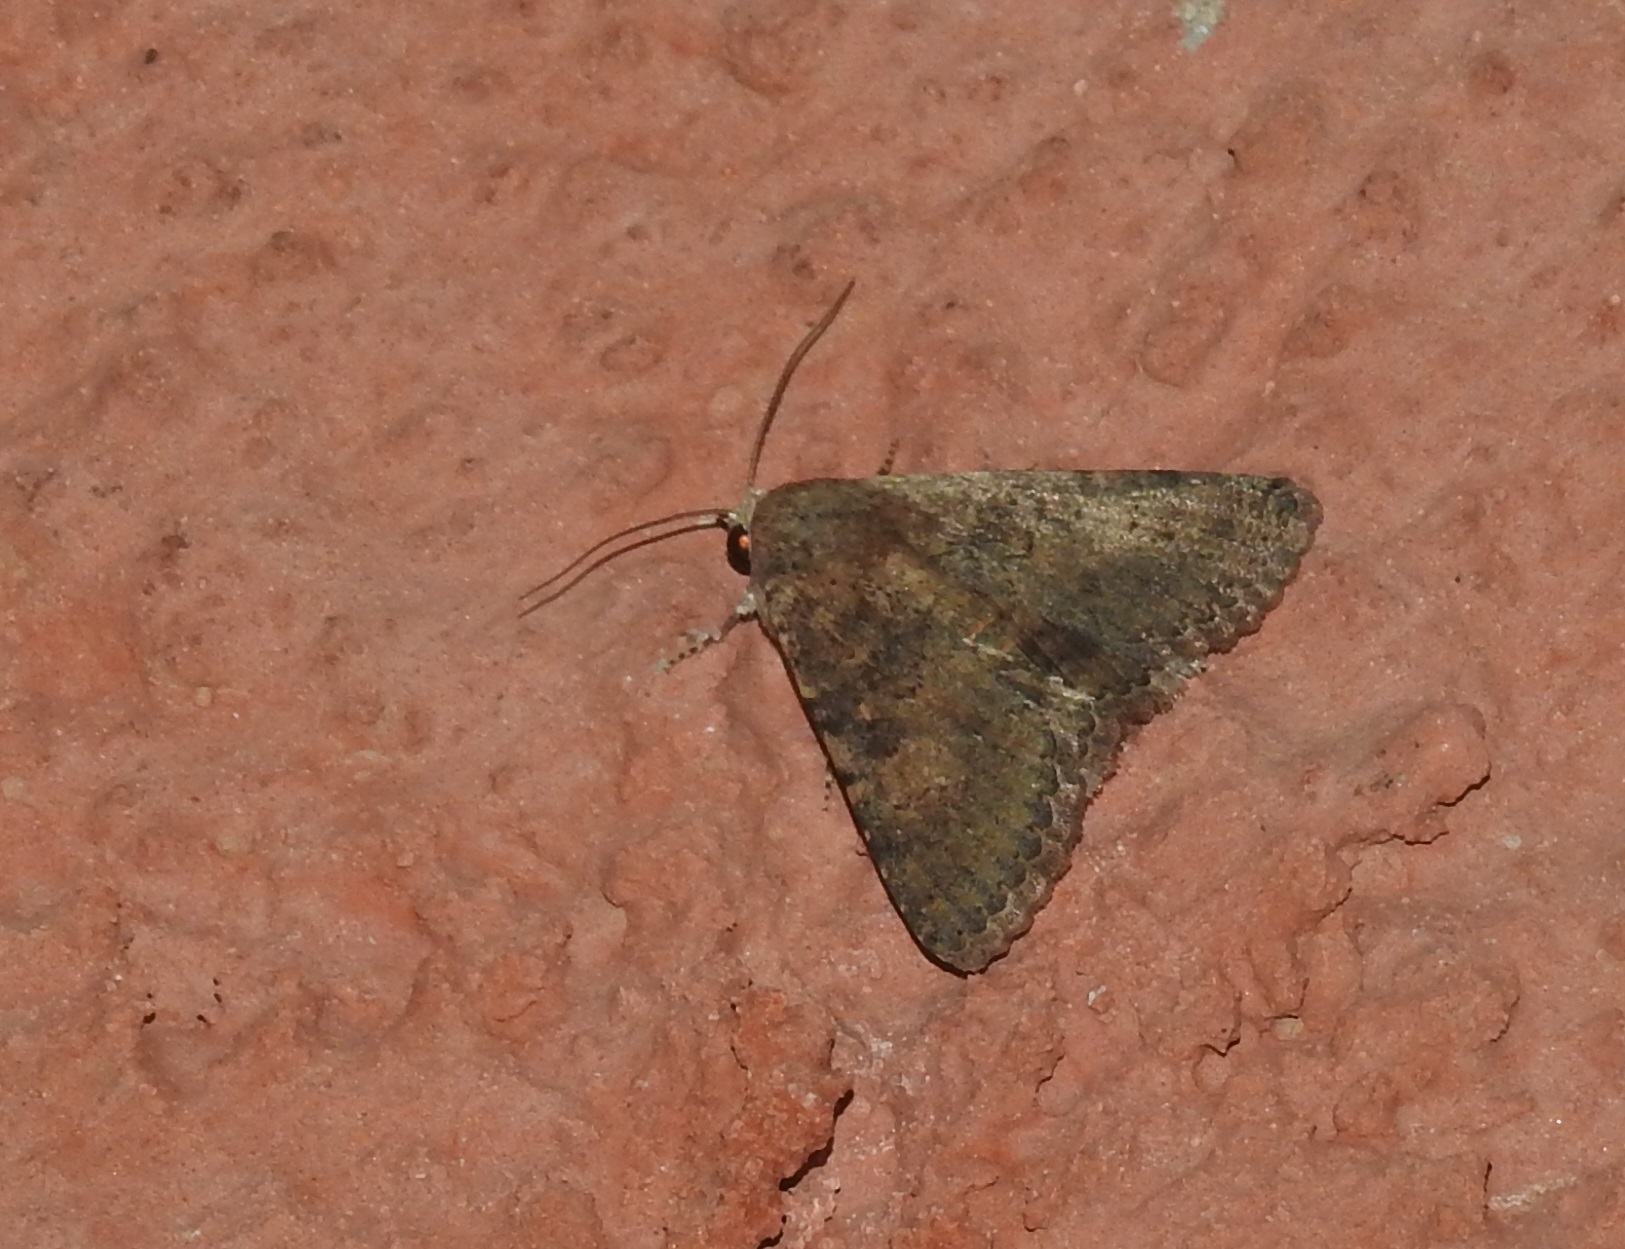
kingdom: Animalia
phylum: Arthropoda
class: Insecta
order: Lepidoptera
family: Erebidae
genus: Pandesma
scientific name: Pandesma robusta
